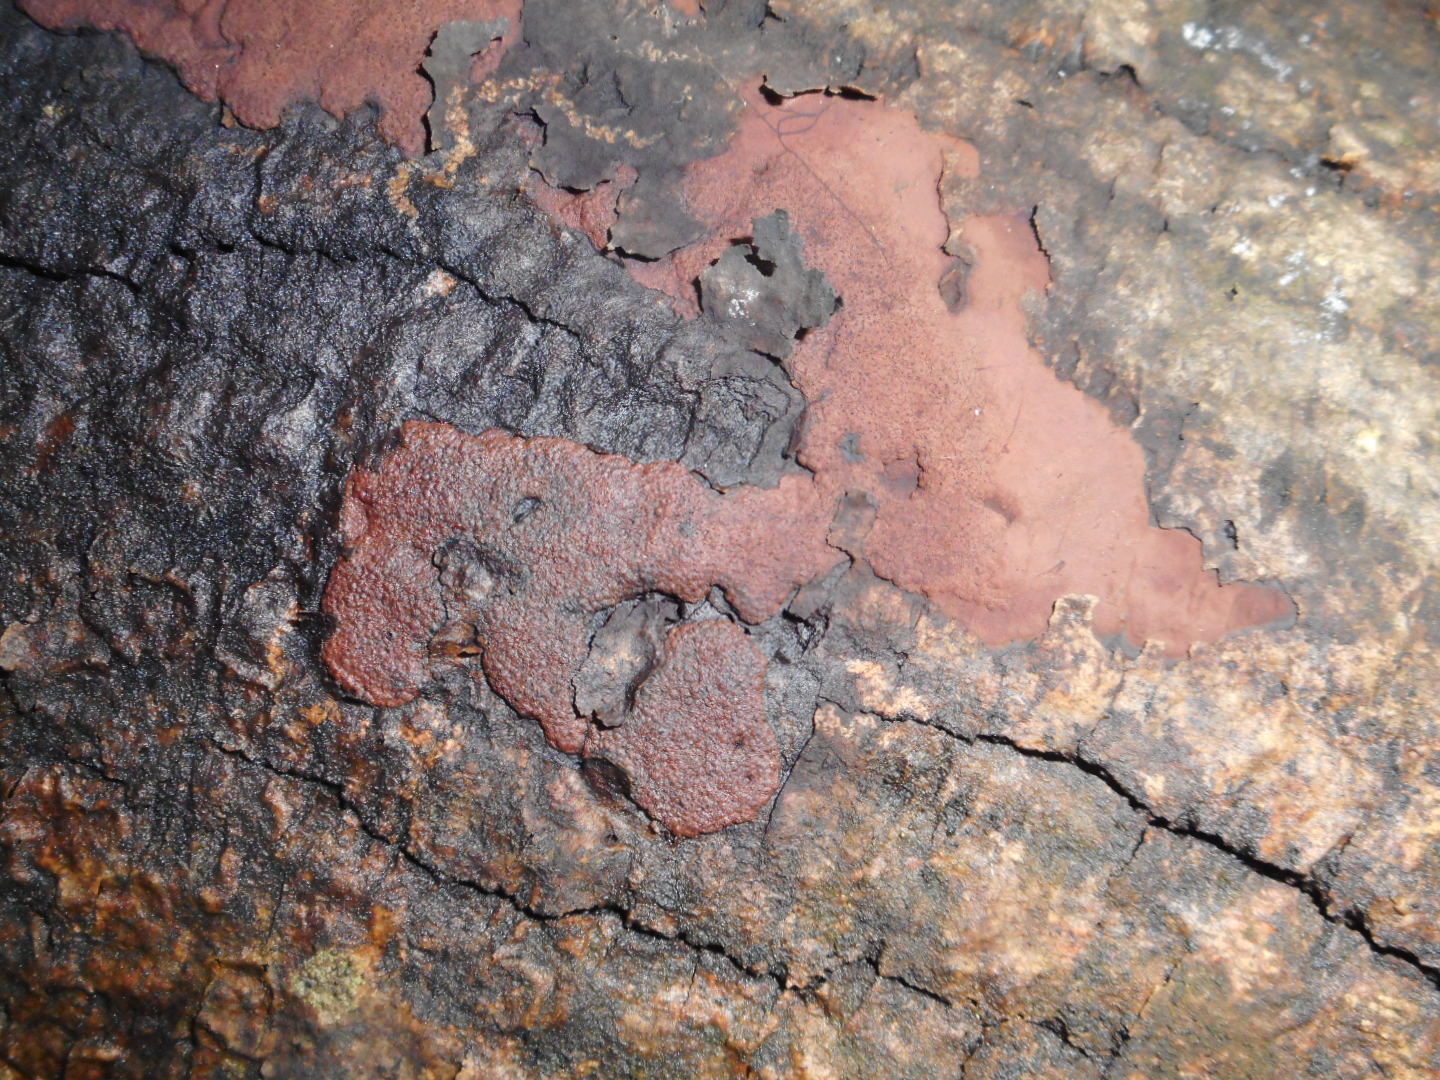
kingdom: Fungi
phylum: Ascomycota
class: Sordariomycetes
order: Xylariales
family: Hypoxylaceae
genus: Hypoxylon
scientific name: Hypoxylon petriniae
